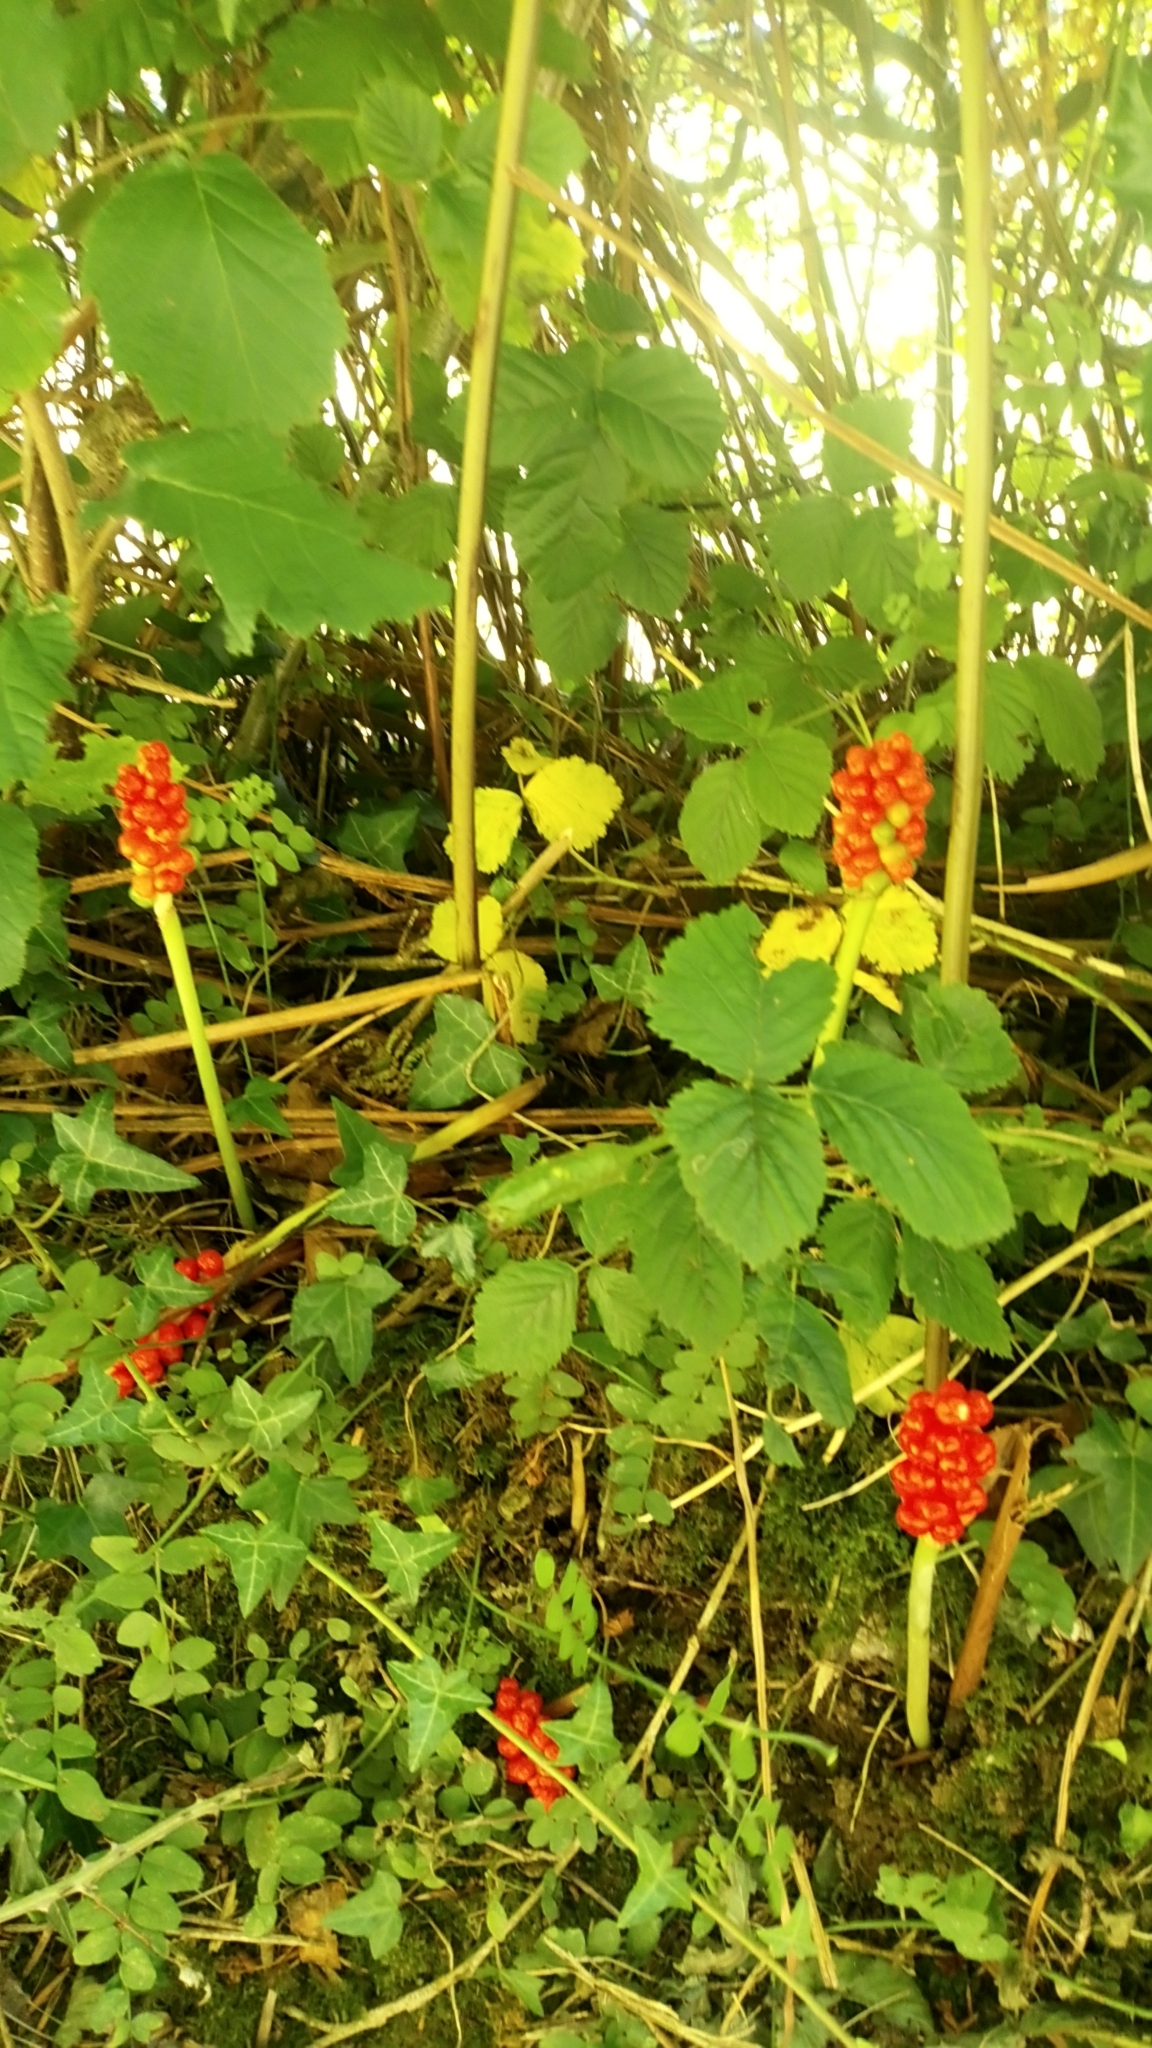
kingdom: Plantae
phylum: Tracheophyta
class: Liliopsida
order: Alismatales
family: Araceae
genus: Arum
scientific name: Arum maculatum
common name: Lords-and-ladies
